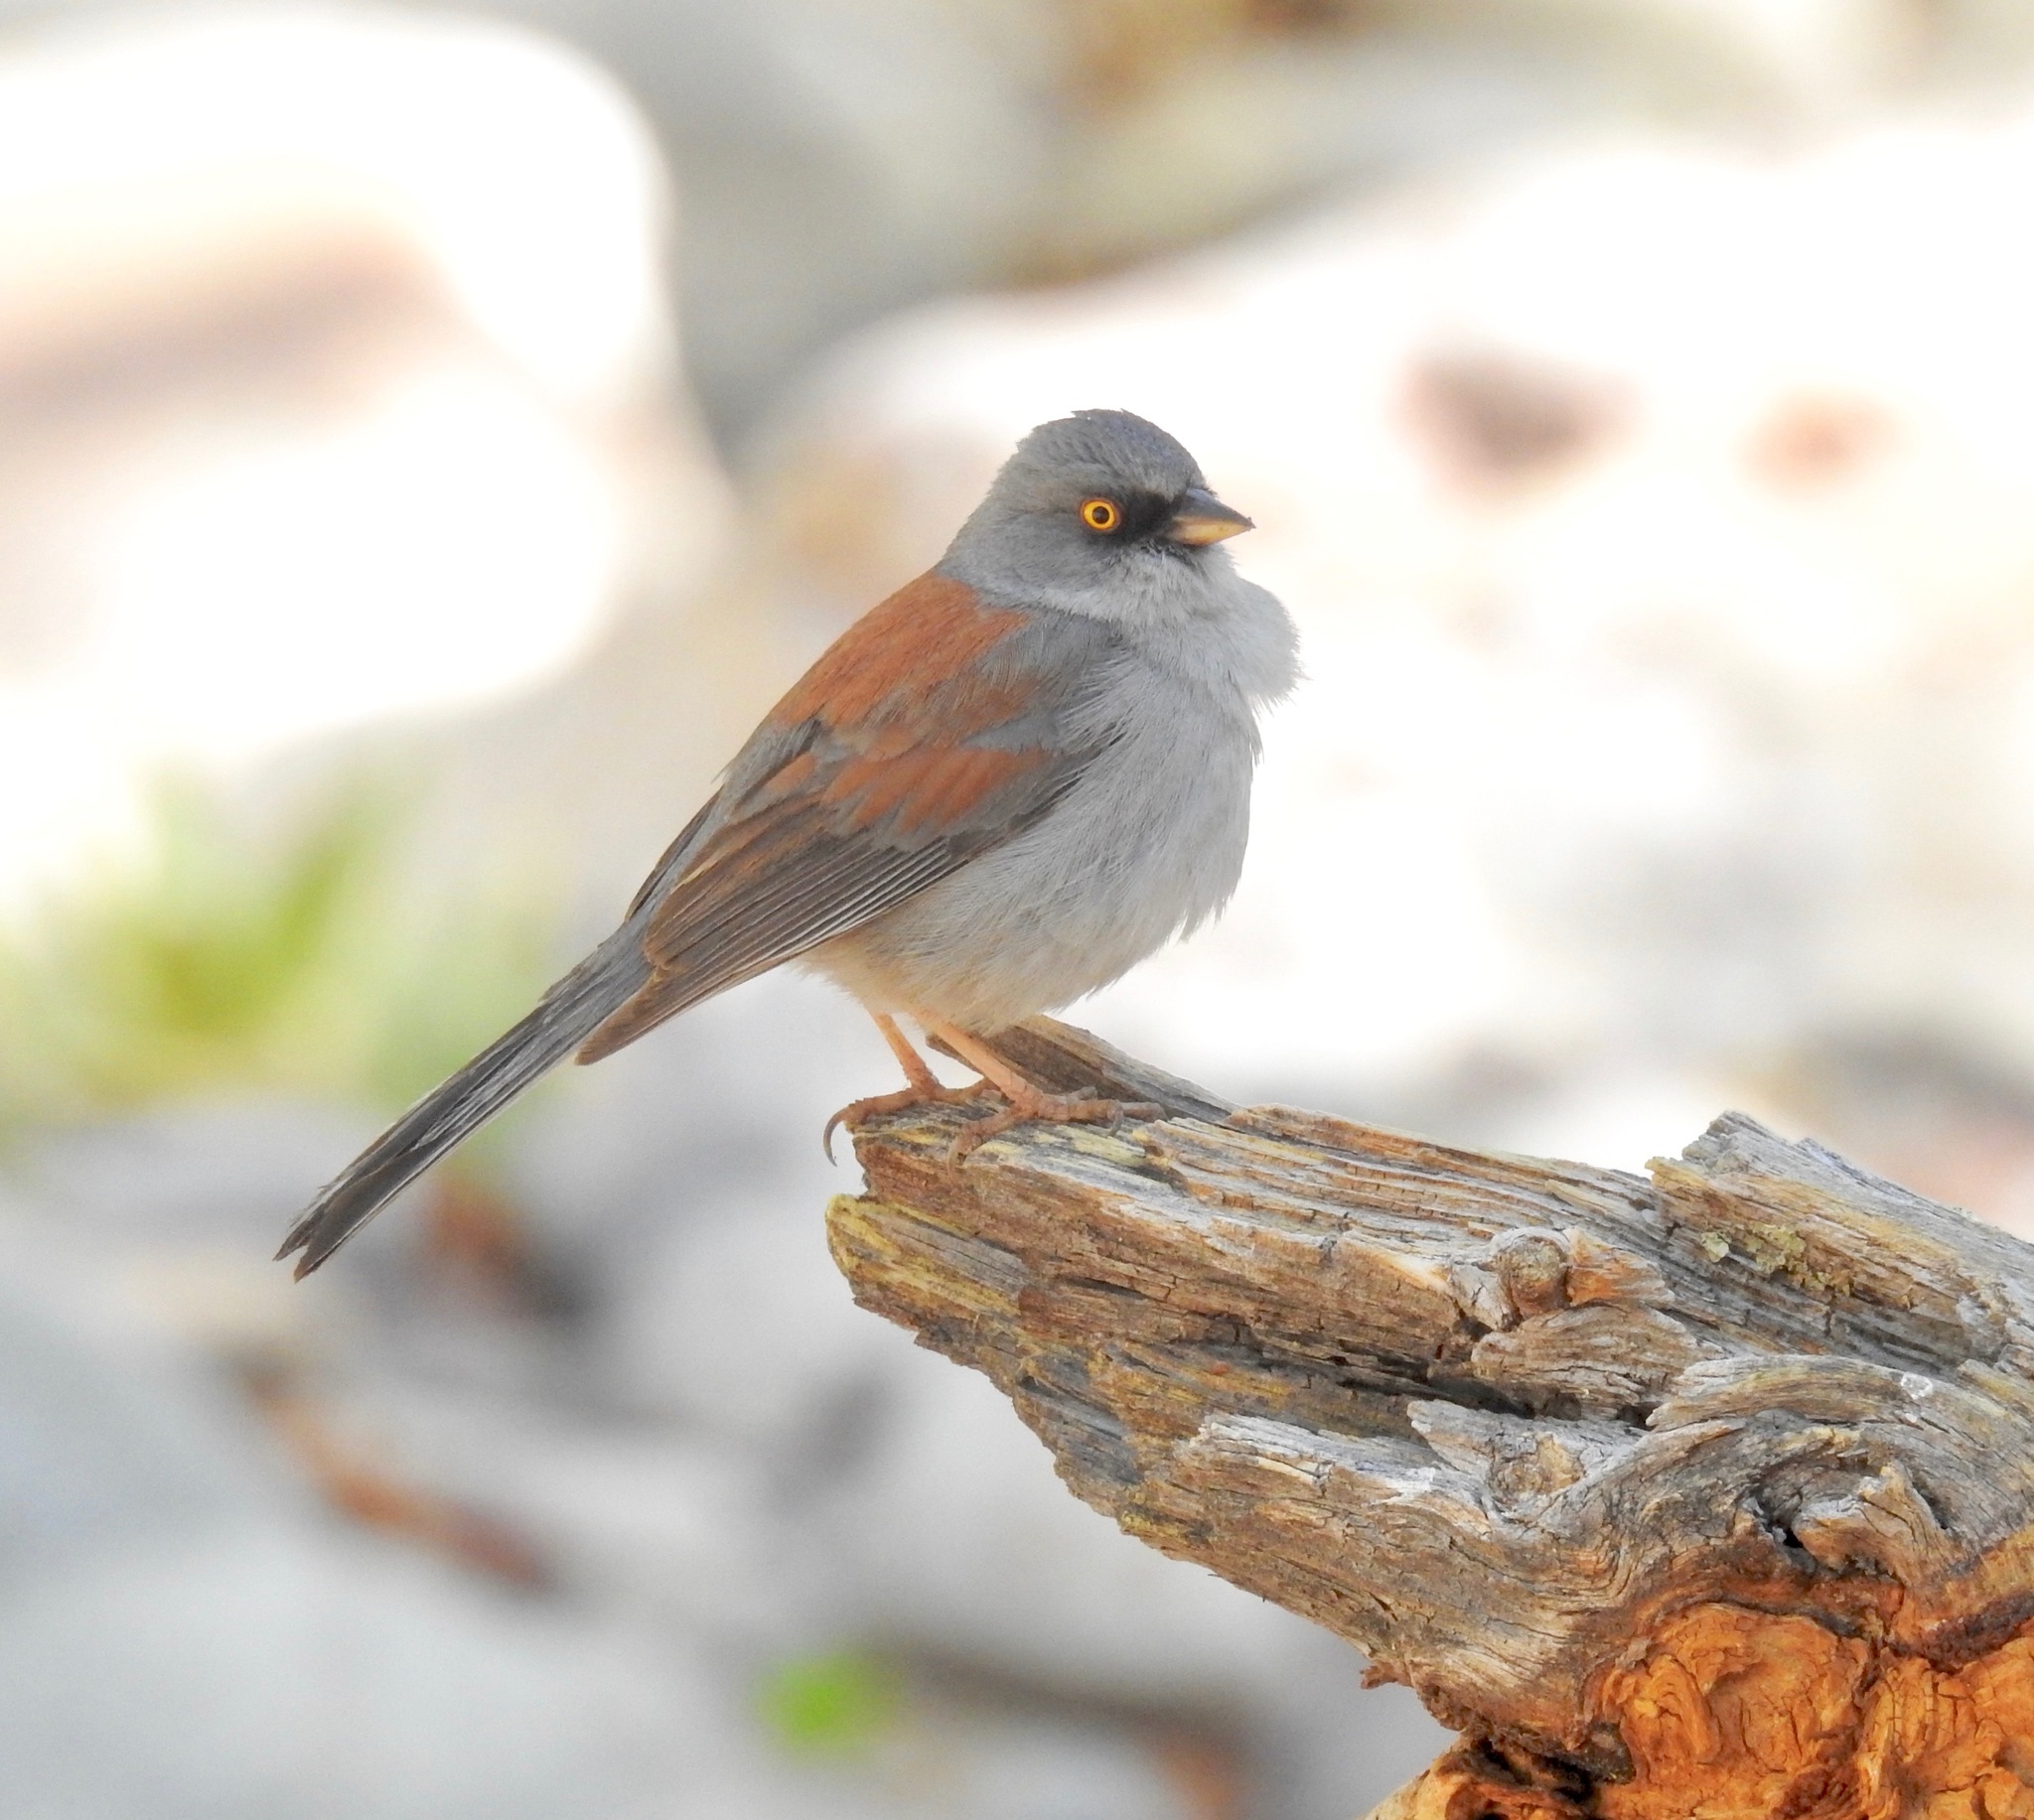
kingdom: Animalia
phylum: Chordata
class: Aves
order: Passeriformes
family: Passerellidae
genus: Junco
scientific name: Junco phaeonotus
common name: Yellow-eyed junco
